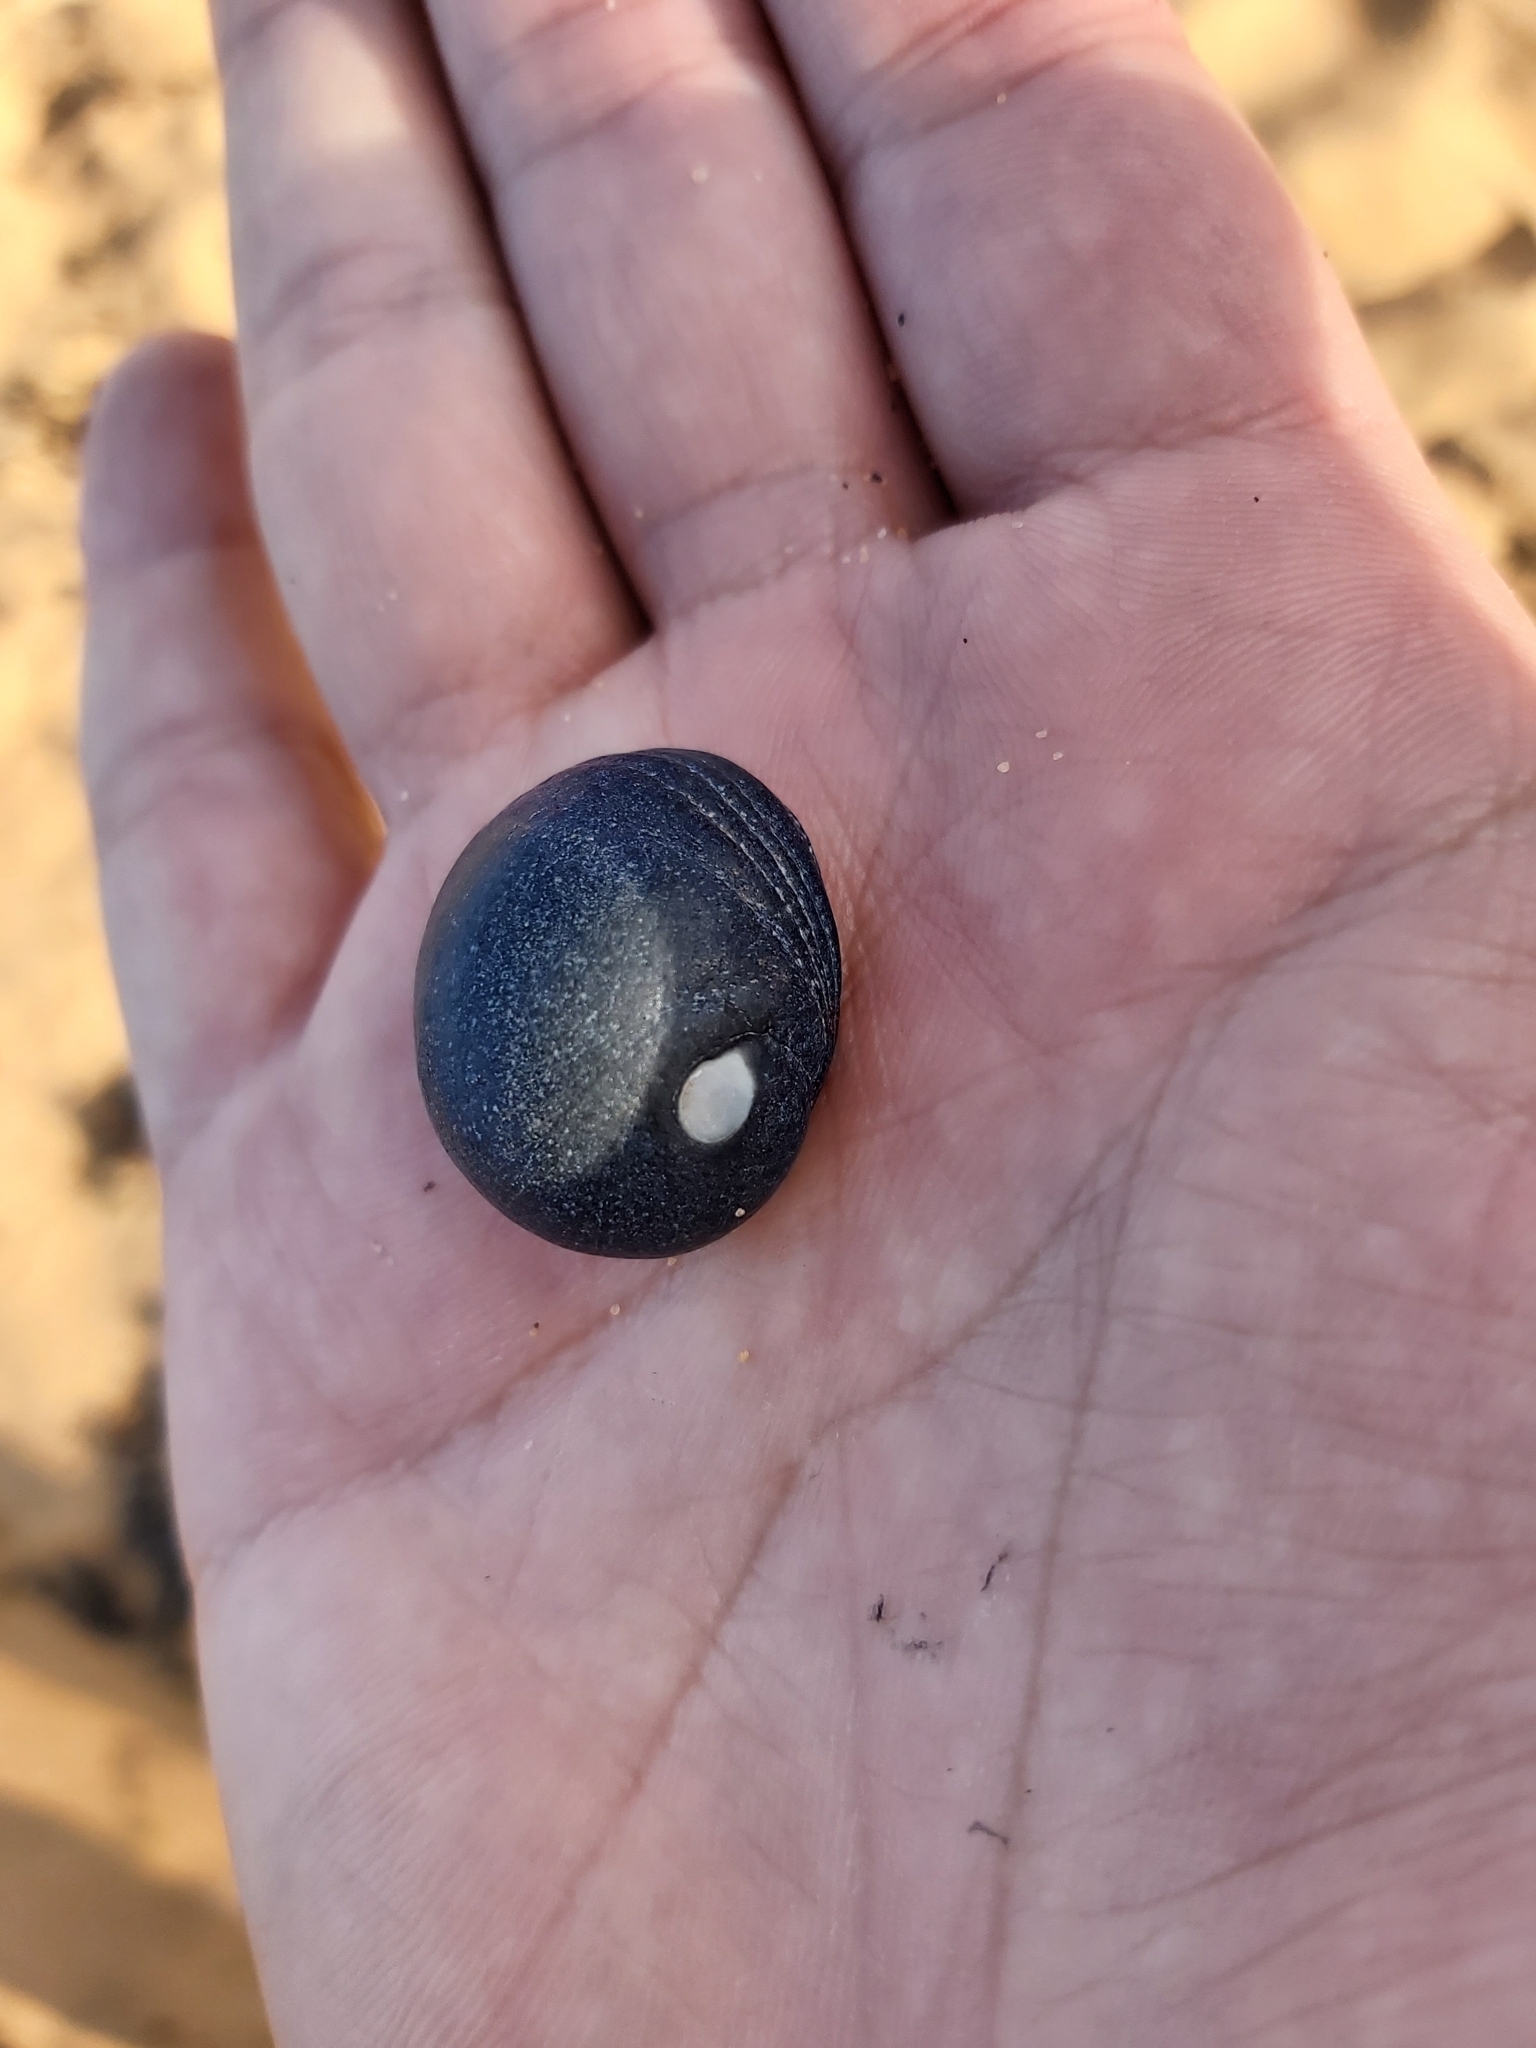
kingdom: Animalia
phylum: Mollusca
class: Gastropoda
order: Cycloneritida
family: Neritidae
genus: Nerita
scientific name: Nerita melanotragus
